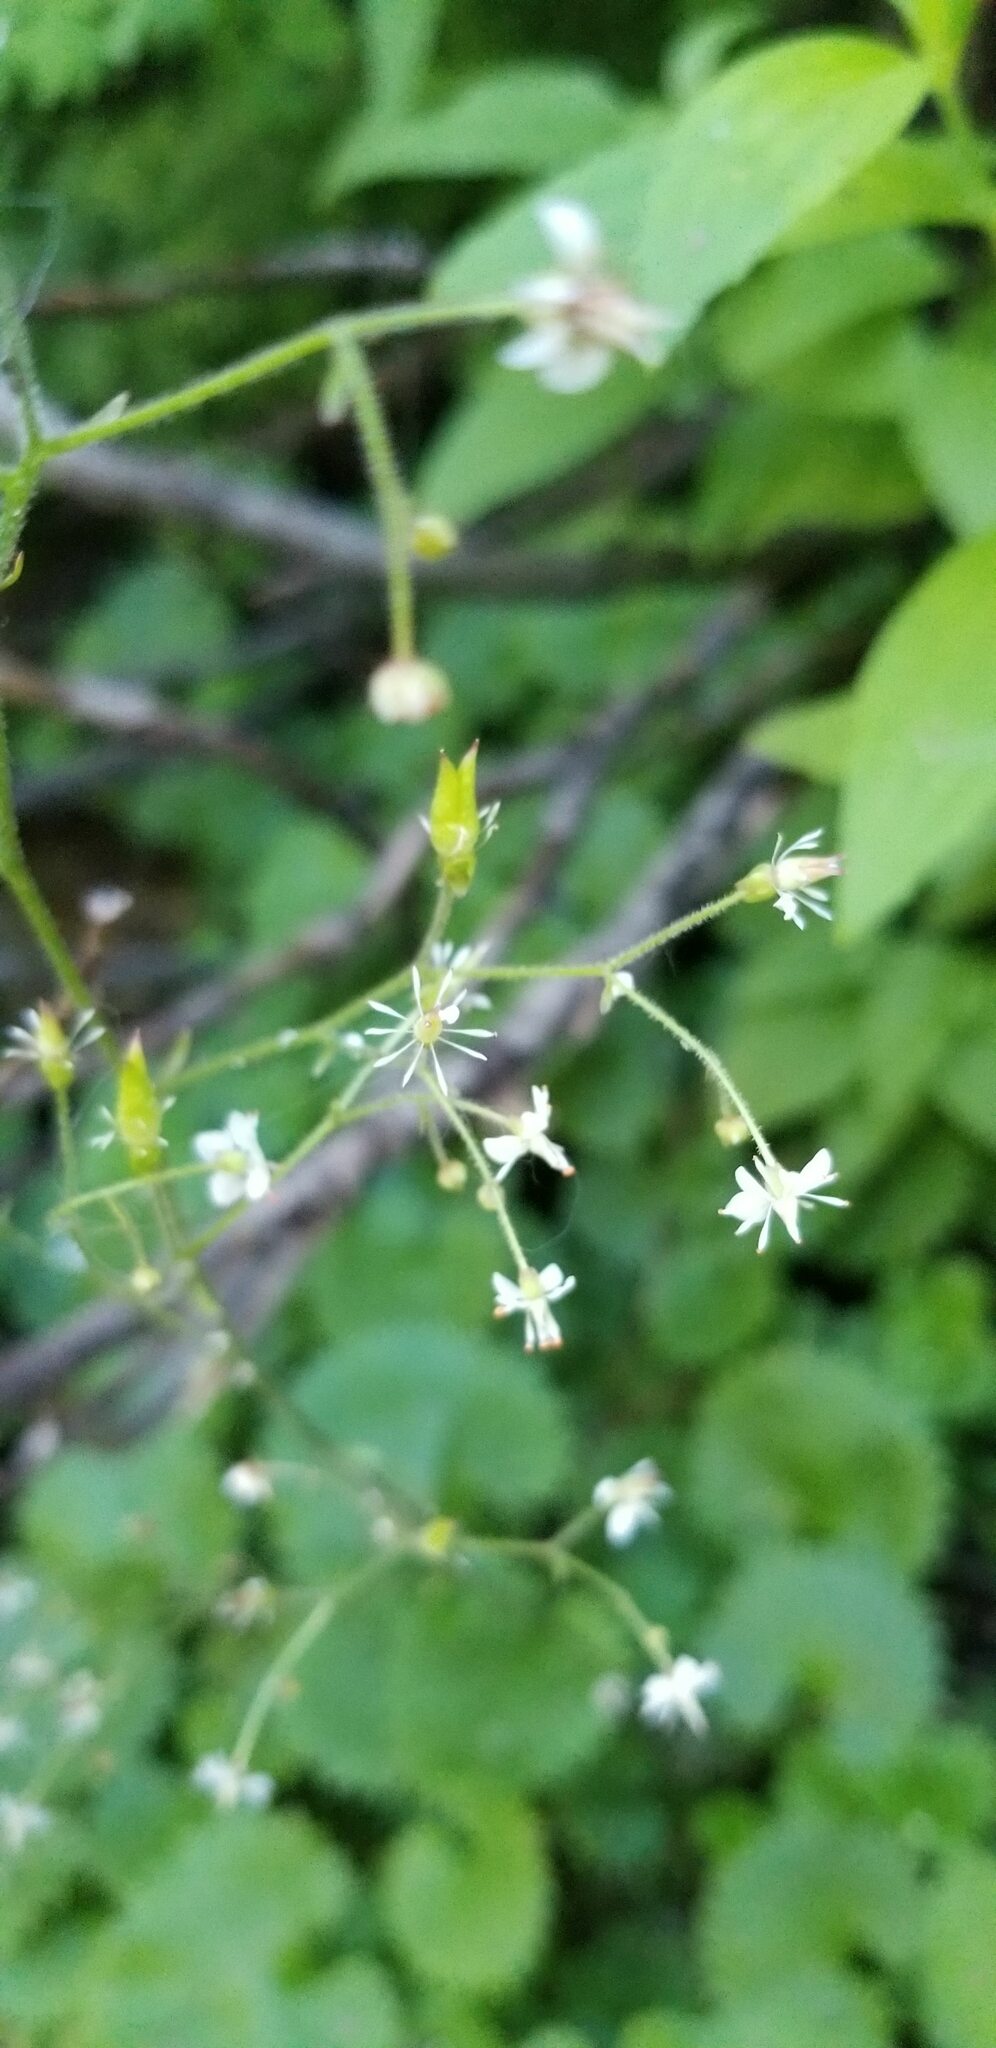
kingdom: Plantae
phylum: Tracheophyta
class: Magnoliopsida
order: Saxifragales
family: Saxifragaceae
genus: Micranthes
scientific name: Micranthes odontoloma
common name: Brook saxifrage
